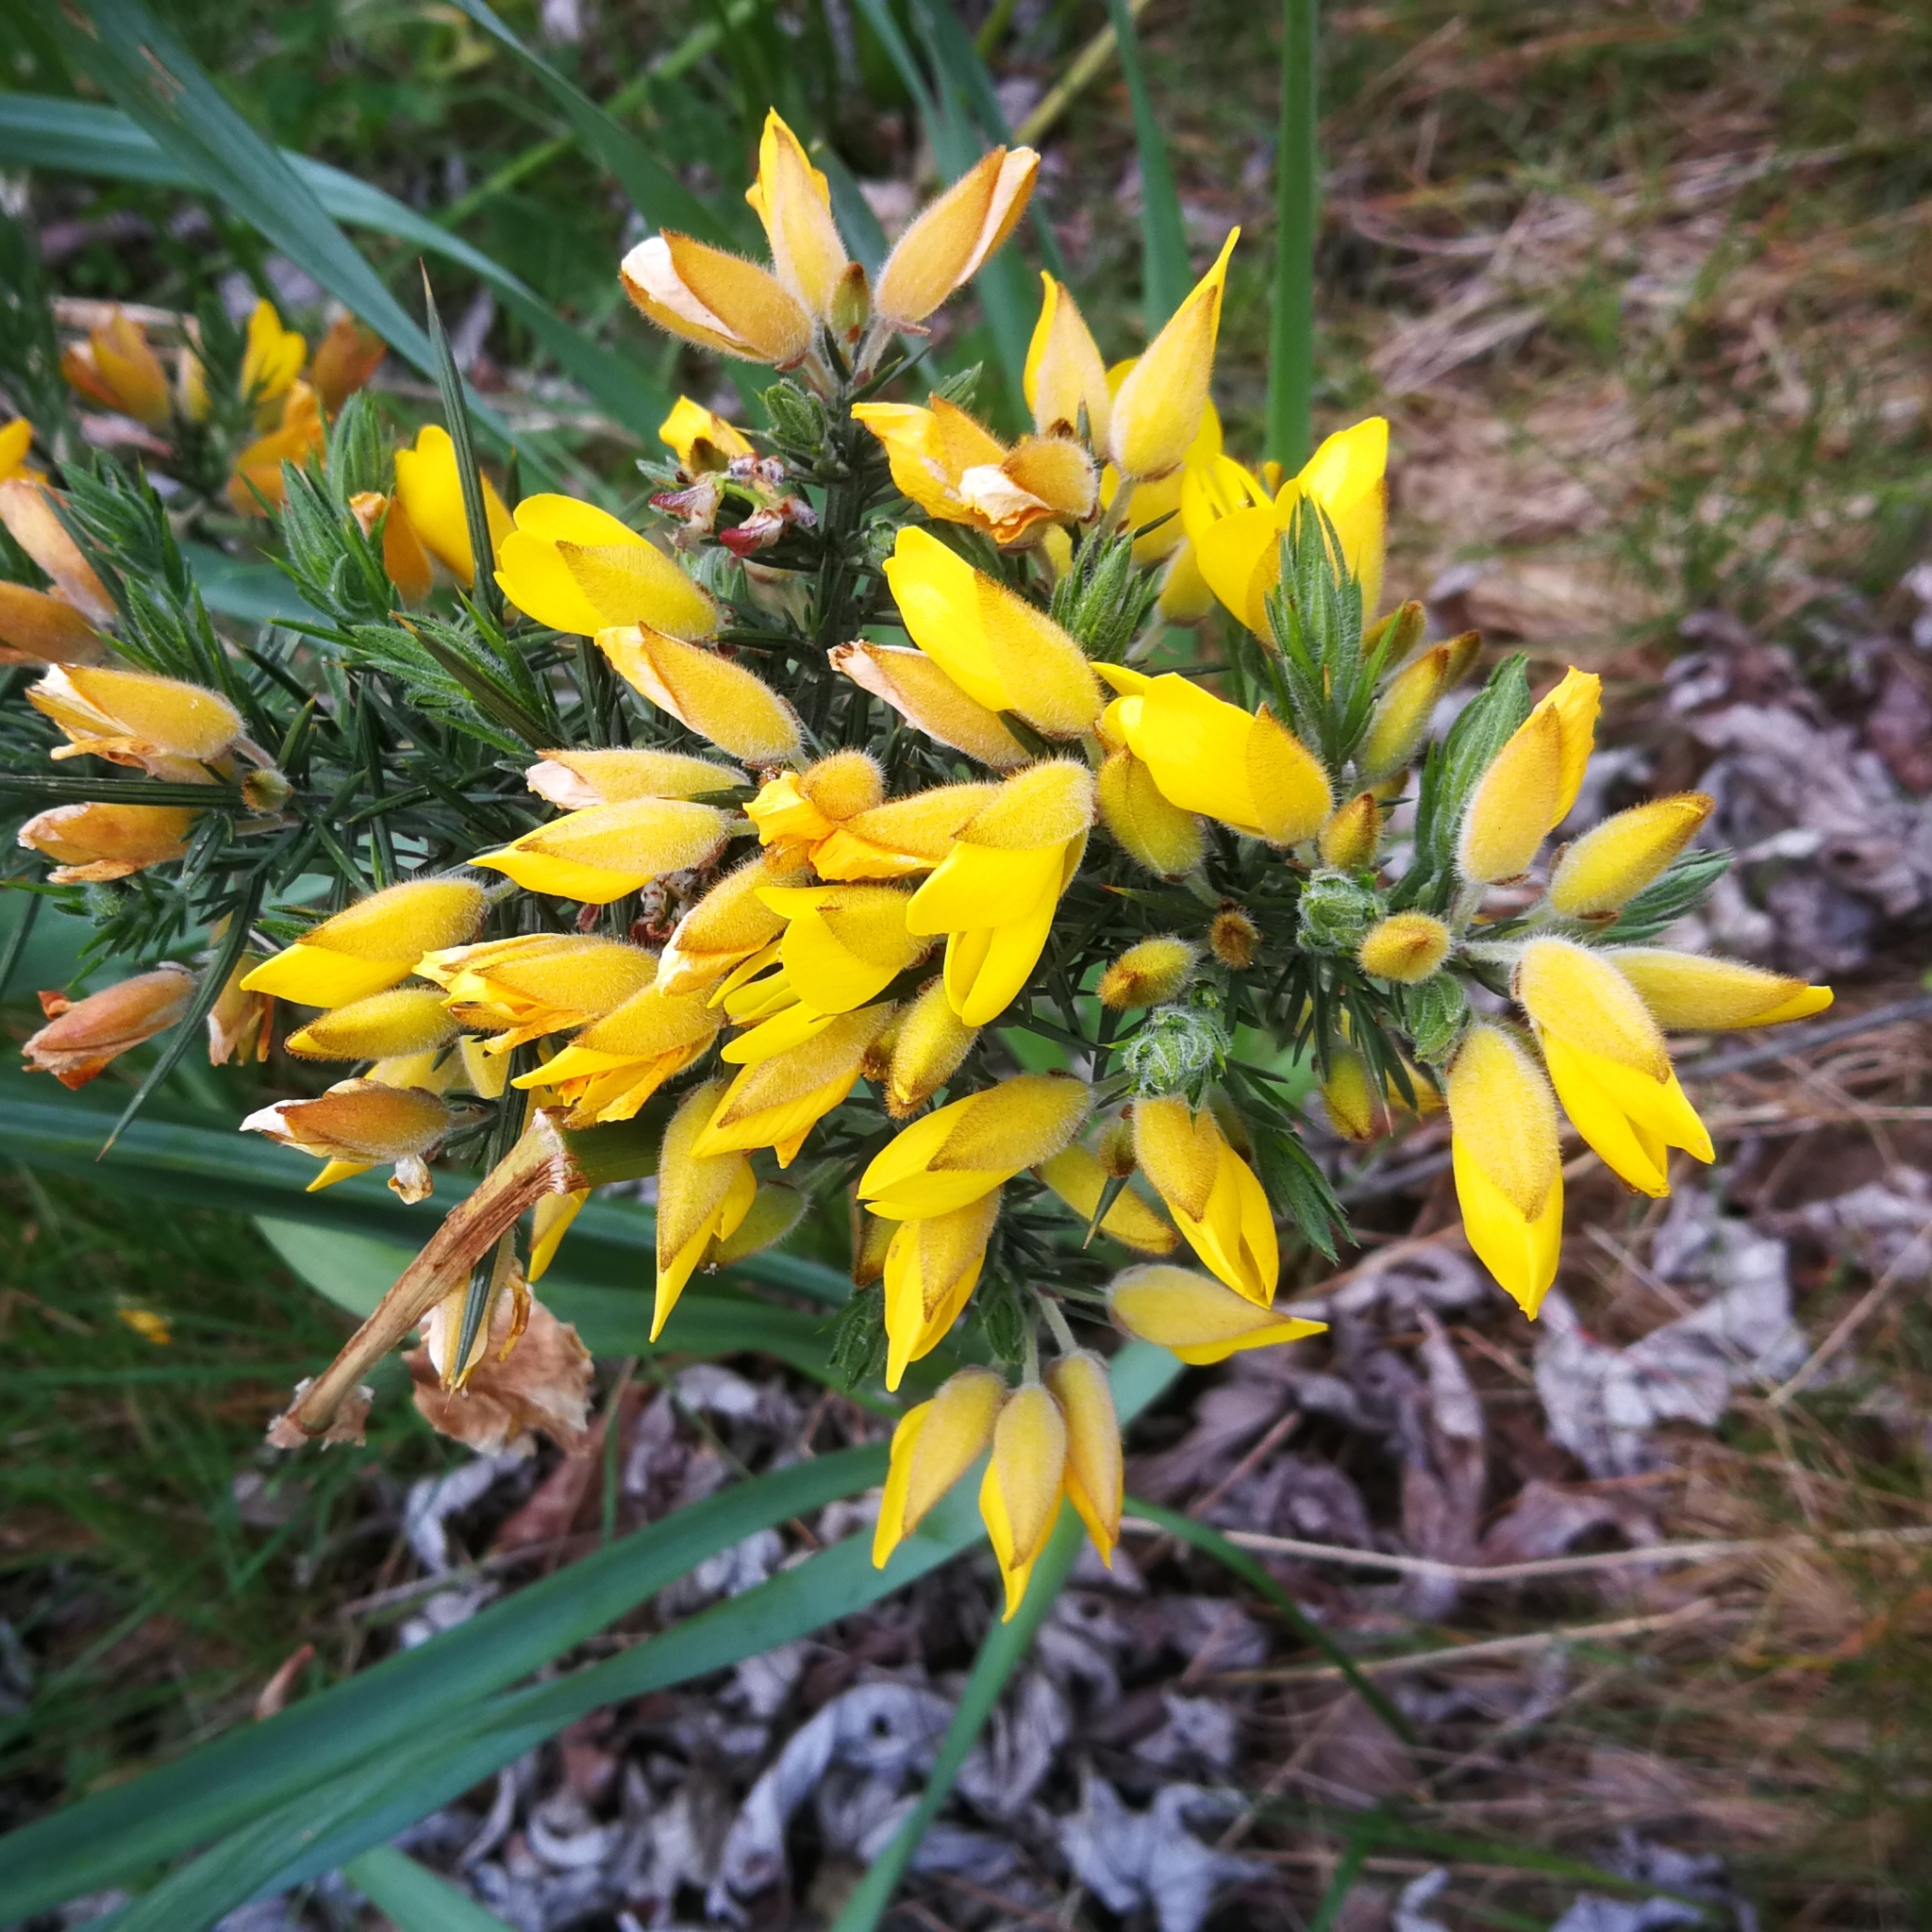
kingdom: Plantae
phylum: Tracheophyta
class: Magnoliopsida
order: Fabales
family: Fabaceae
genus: Ulex
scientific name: Ulex europaeus
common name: Common gorse
